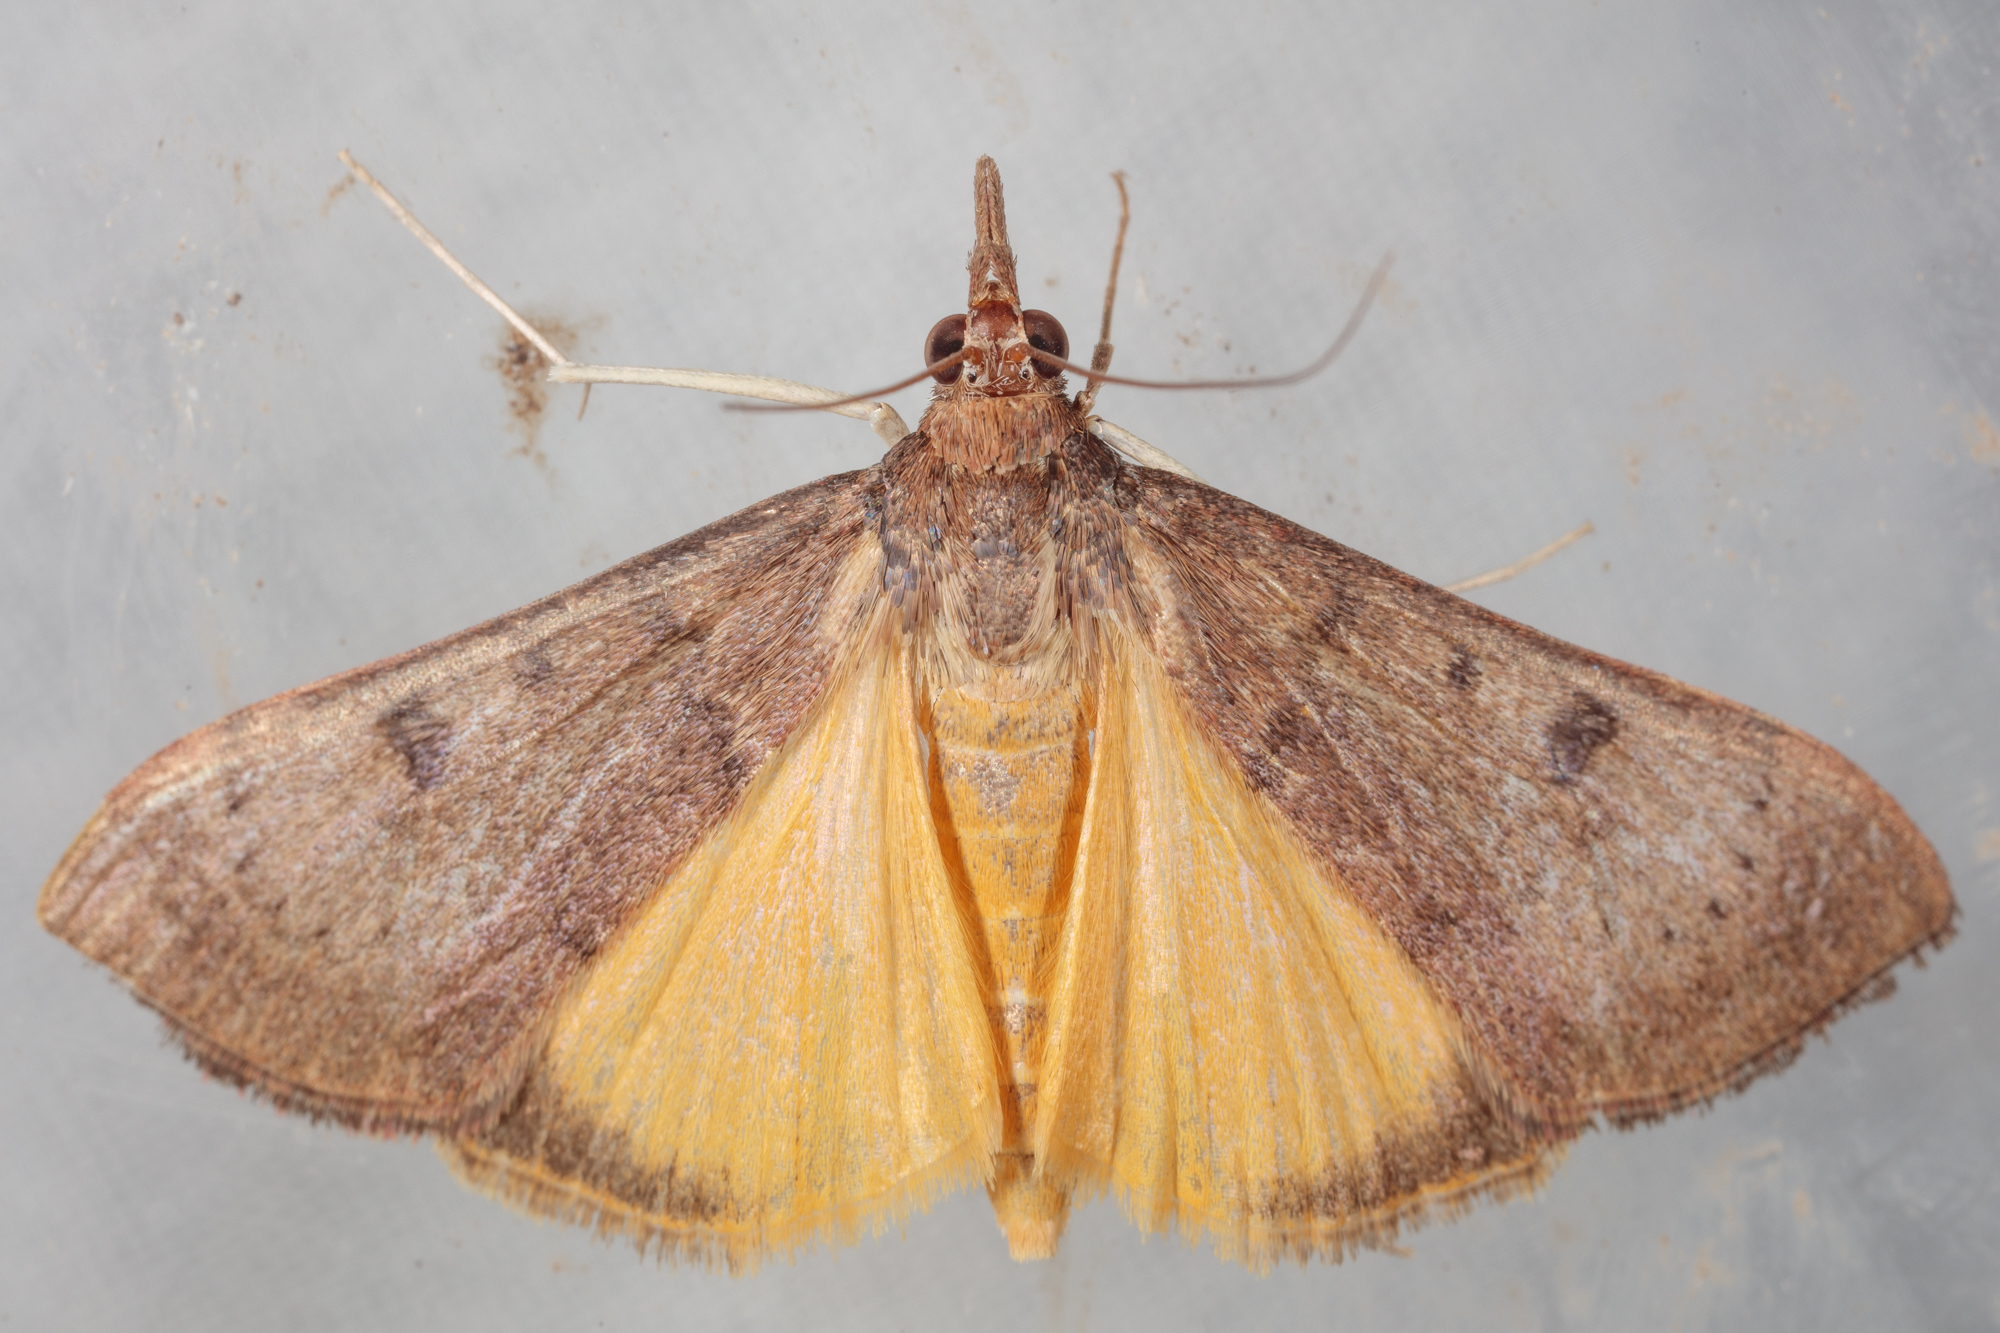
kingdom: Animalia
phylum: Arthropoda
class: Insecta
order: Lepidoptera
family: Crambidae
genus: Uresiphita
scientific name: Uresiphita reversalis
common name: Genista broom moth
